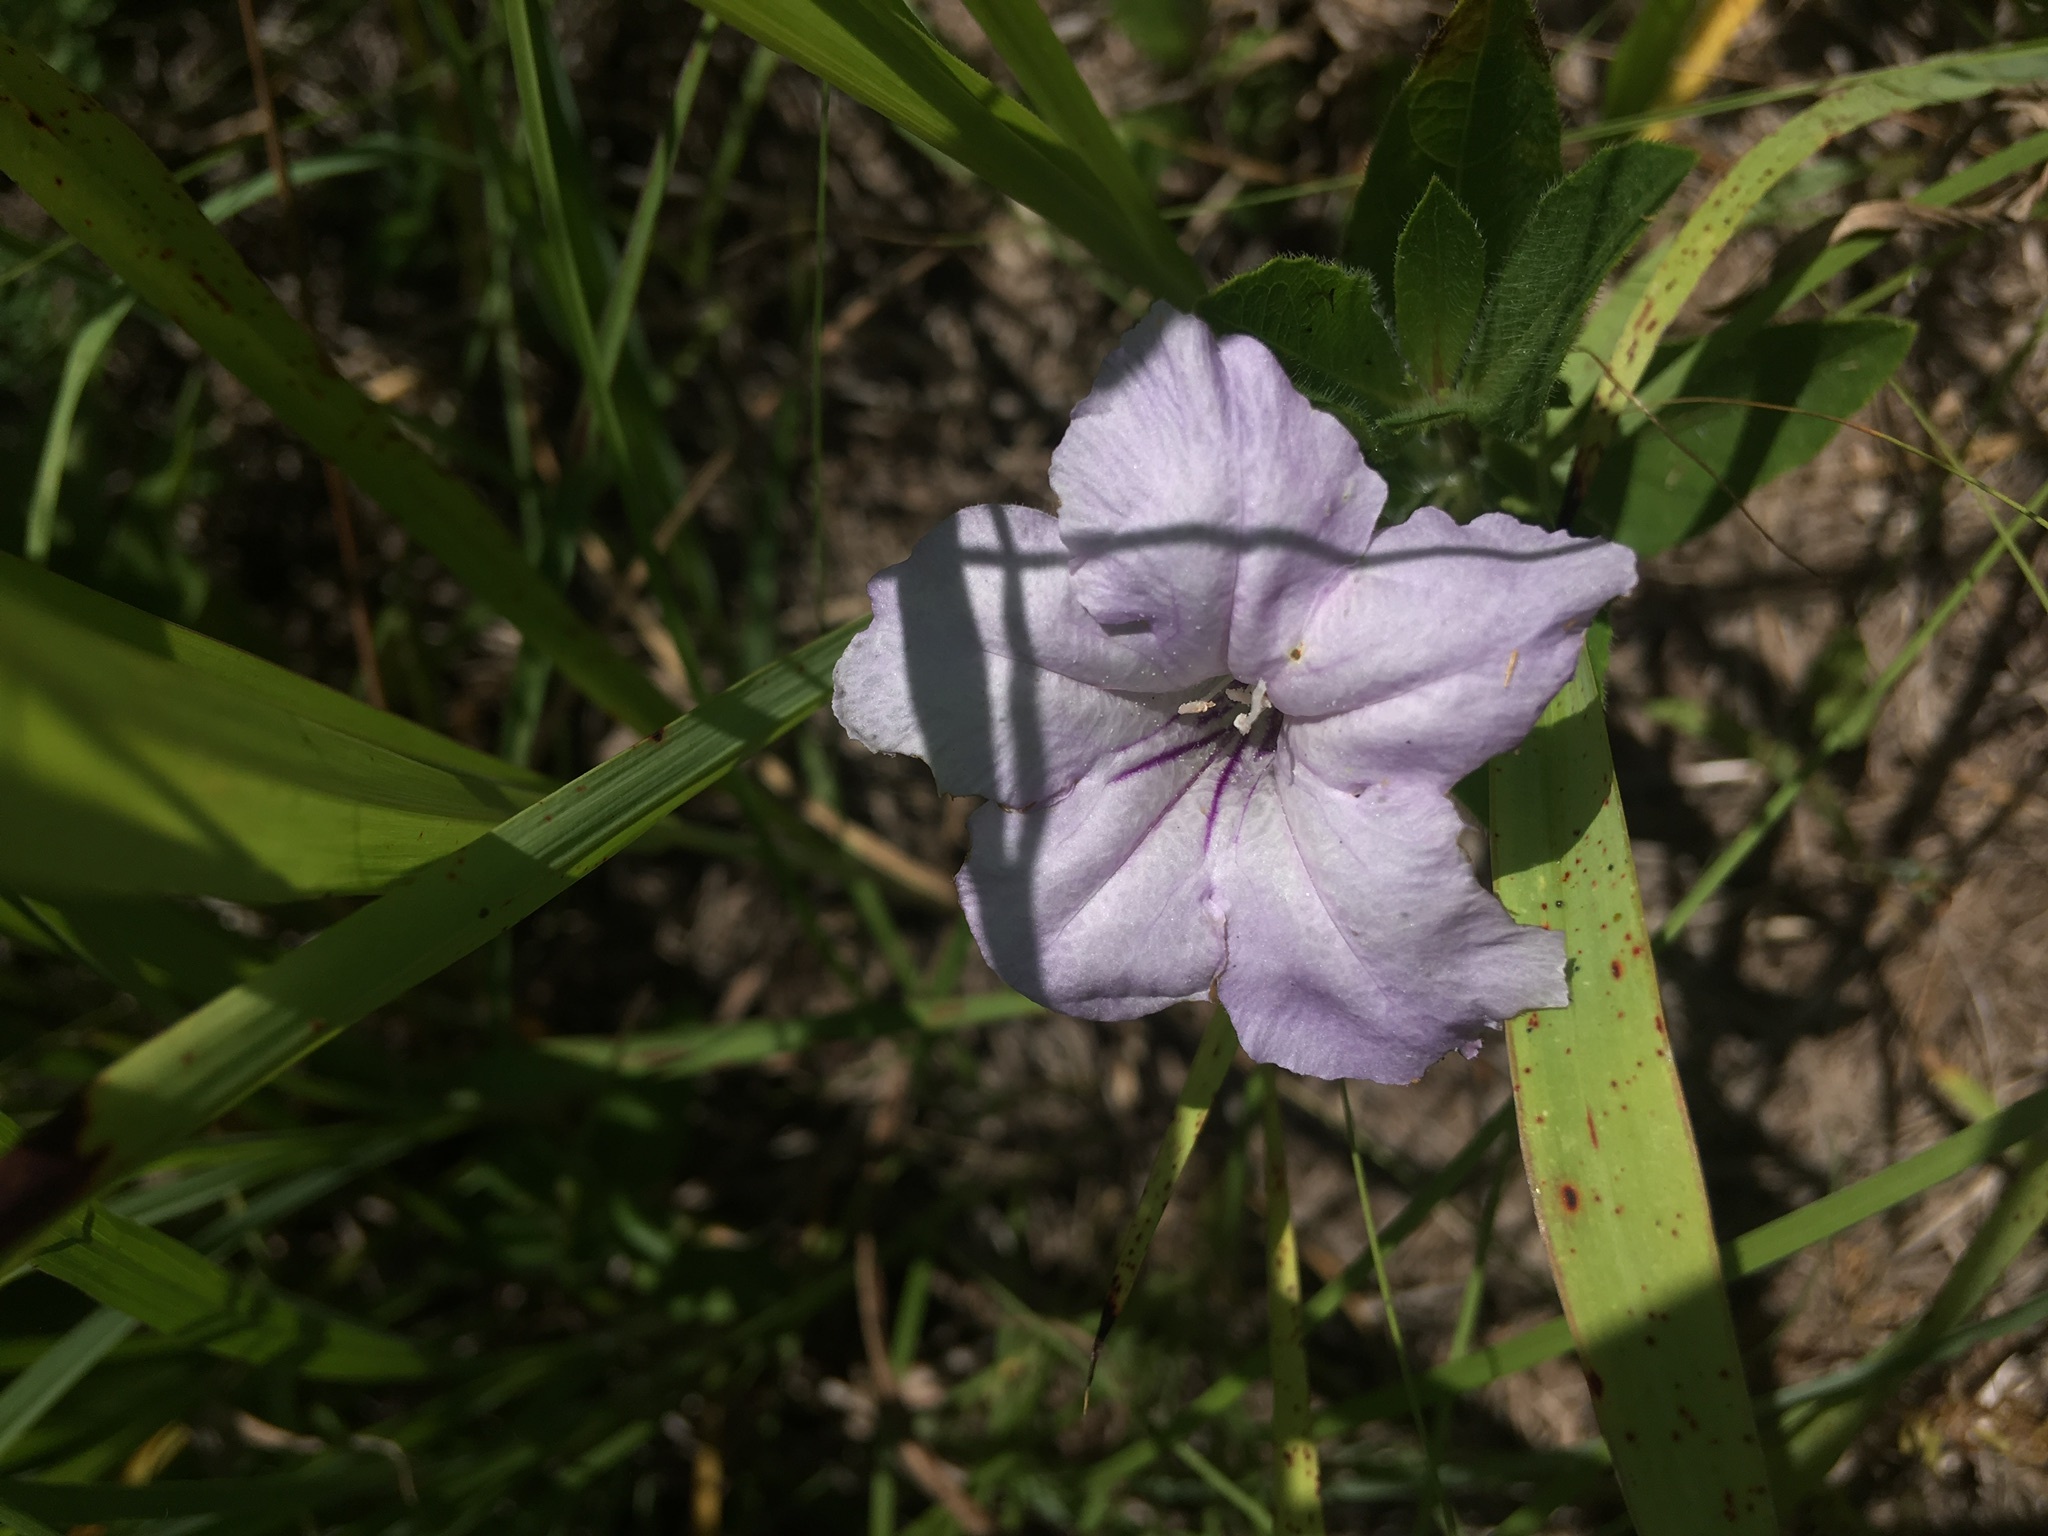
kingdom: Plantae
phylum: Tracheophyta
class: Magnoliopsida
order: Lamiales
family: Acanthaceae
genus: Ruellia
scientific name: Ruellia humilis
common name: Fringe-leaf ruellia
